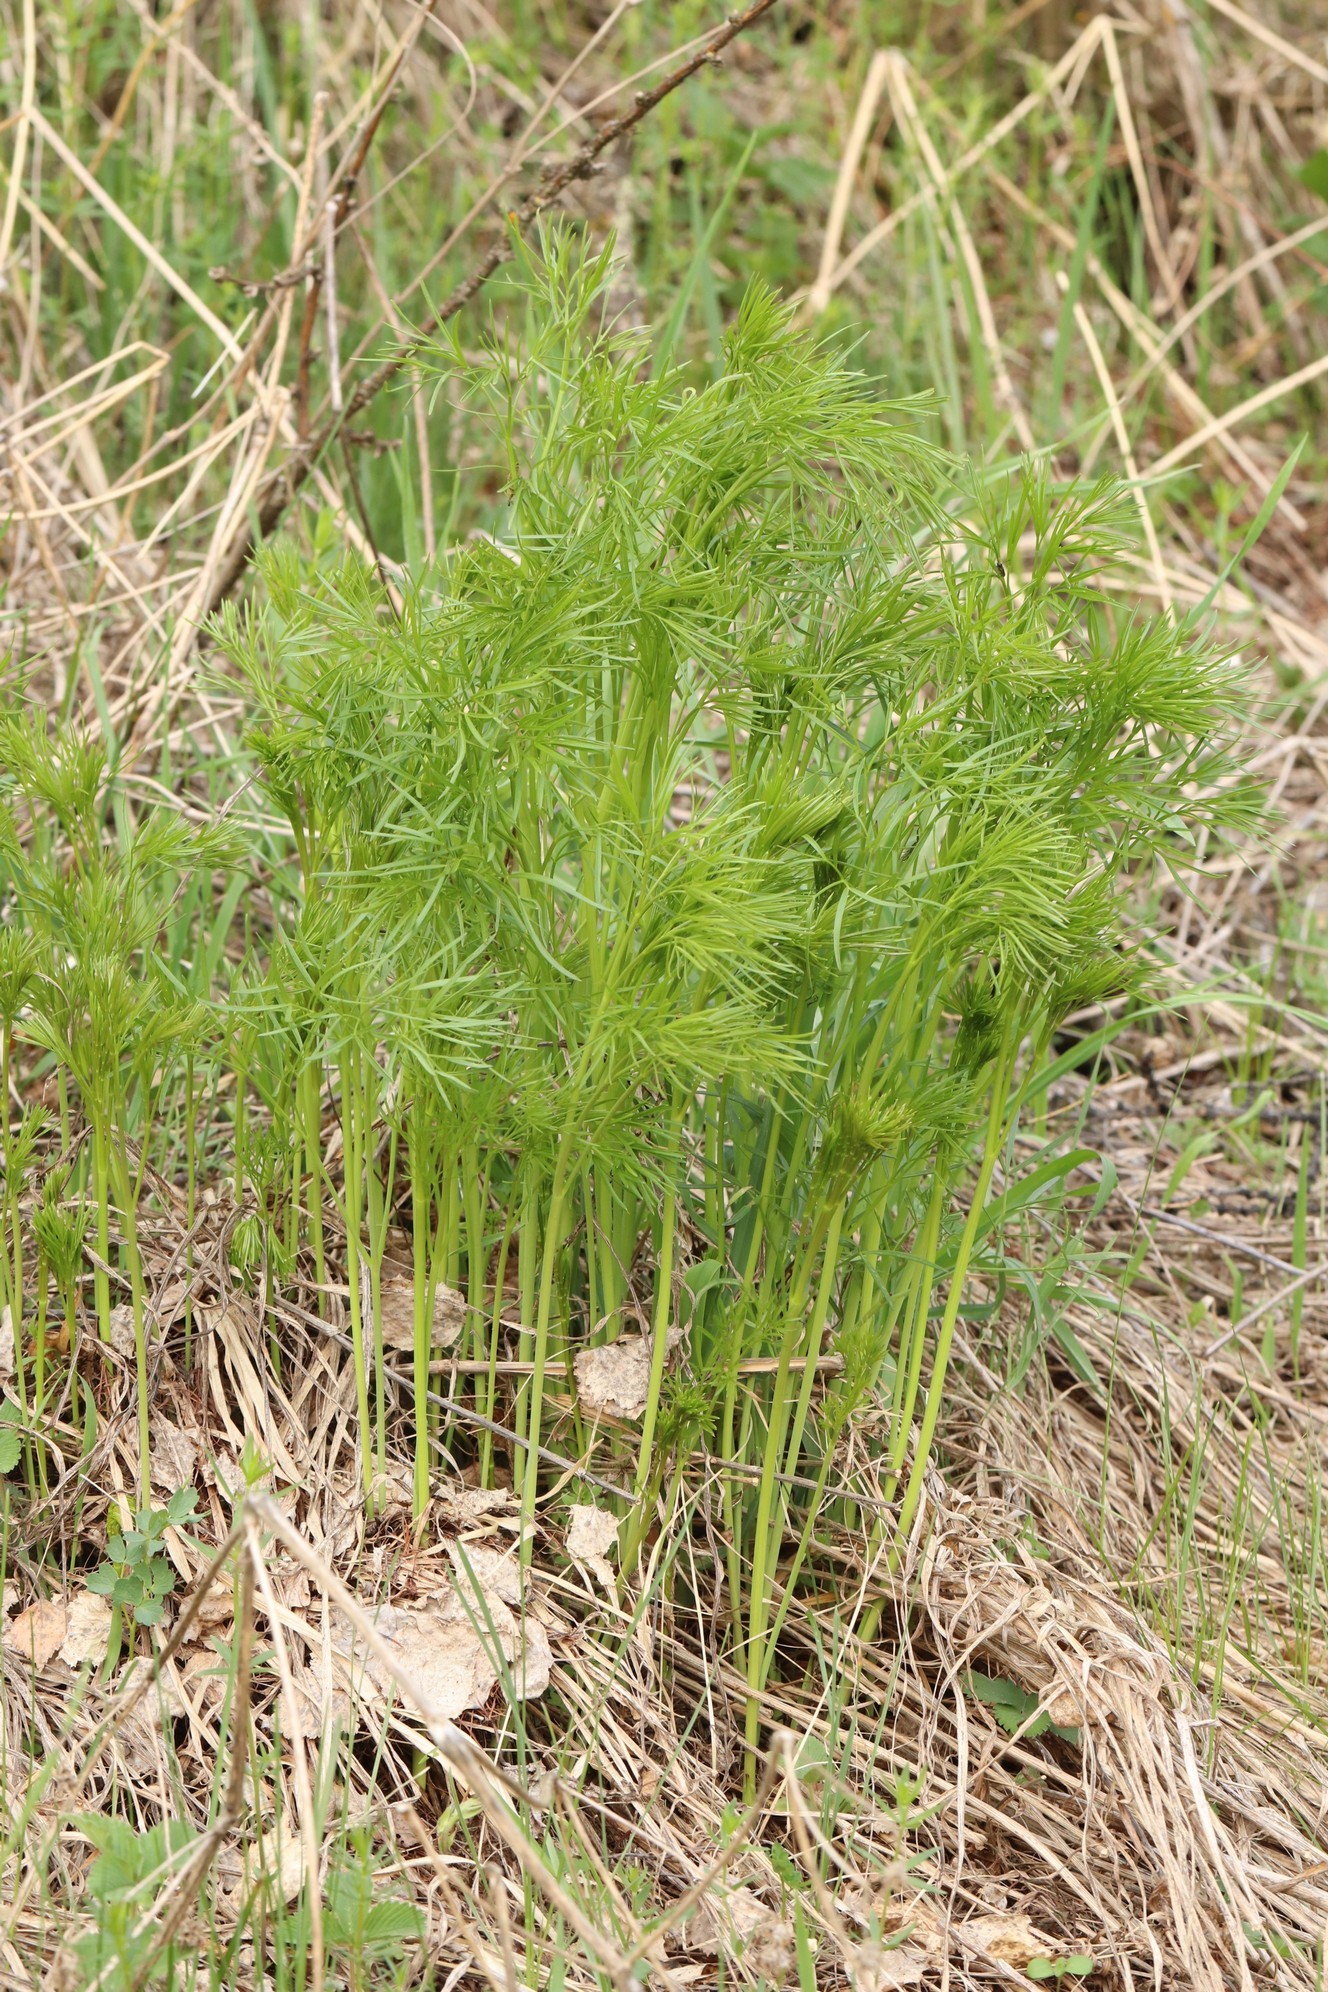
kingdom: Plantae
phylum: Tracheophyta
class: Magnoliopsida
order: Apiales
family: Apiaceae
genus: Peucedanum
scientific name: Peucedanum morisonii
